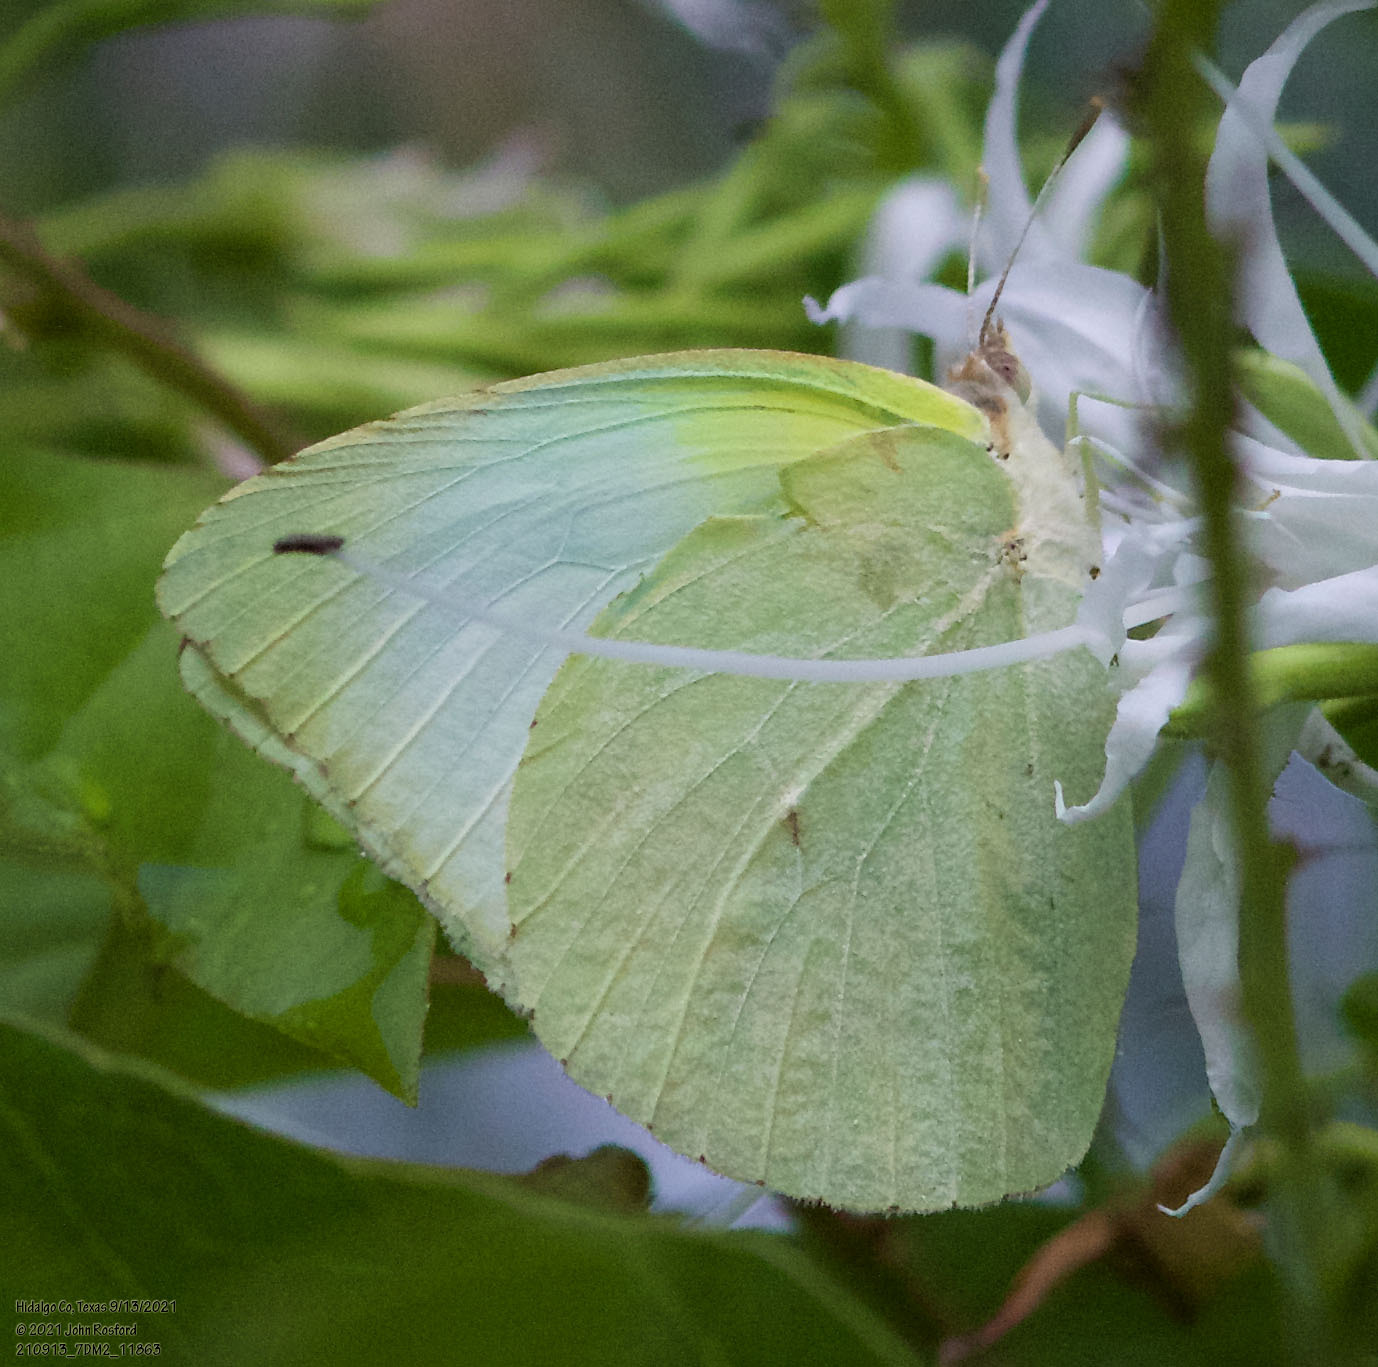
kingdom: Animalia
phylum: Arthropoda
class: Insecta
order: Lepidoptera
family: Pieridae
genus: Kricogonia
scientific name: Kricogonia lyside
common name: Guayacan sulphur,
